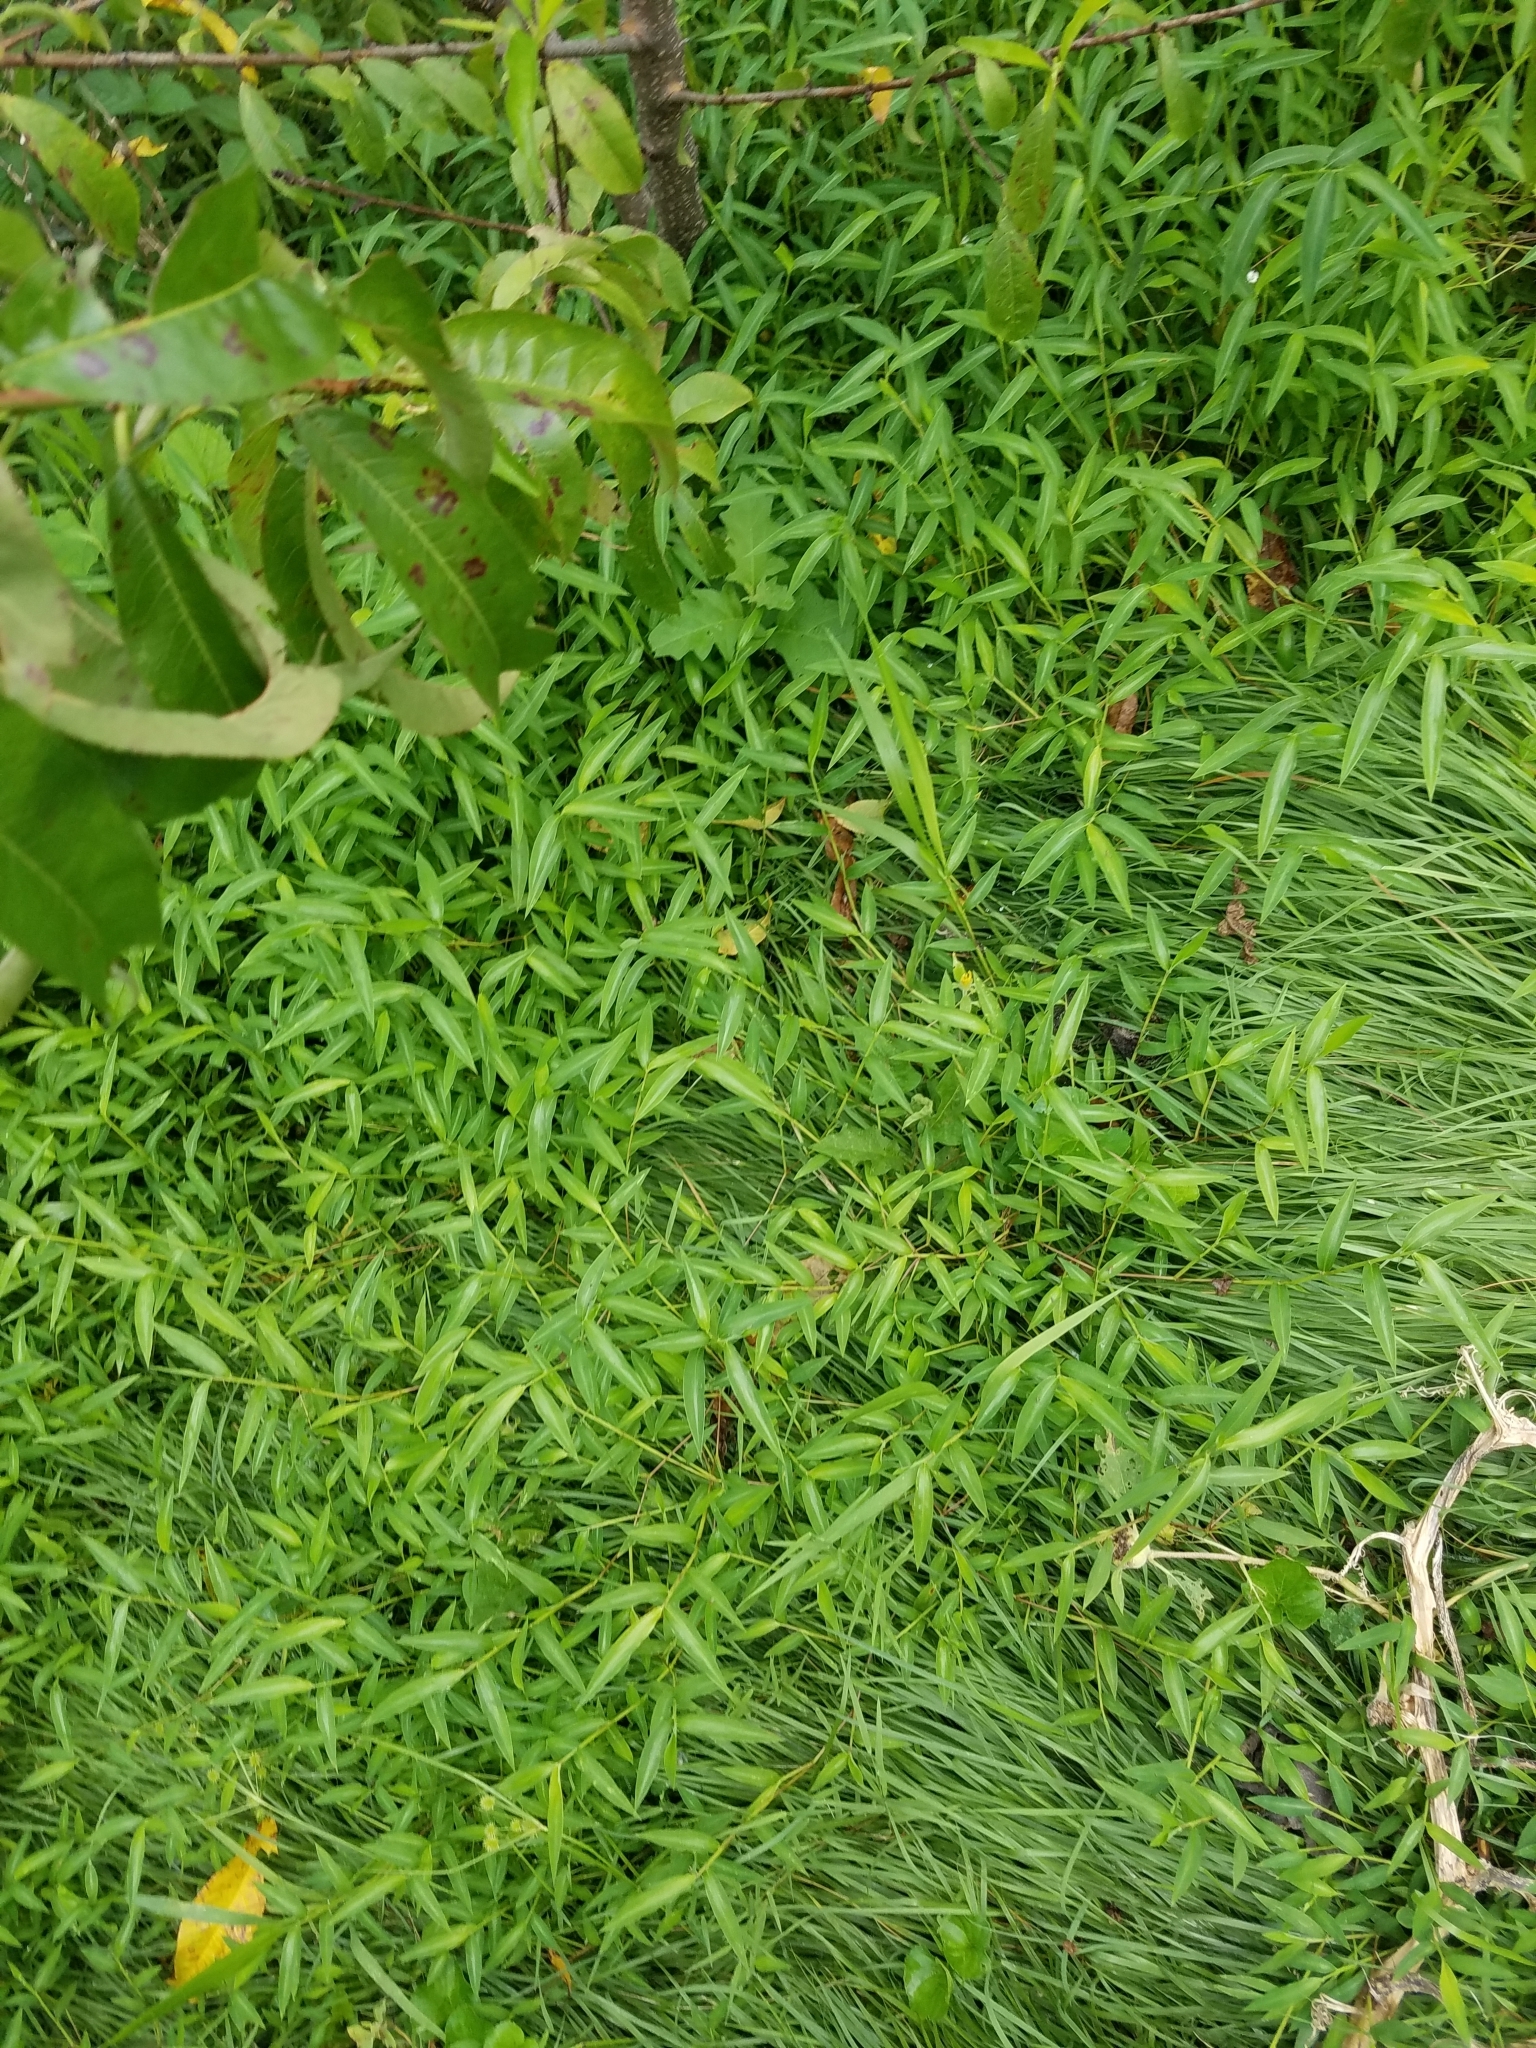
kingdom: Plantae
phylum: Tracheophyta
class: Liliopsida
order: Poales
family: Poaceae
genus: Microstegium
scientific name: Microstegium vimineum
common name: Japanese stiltgrass
